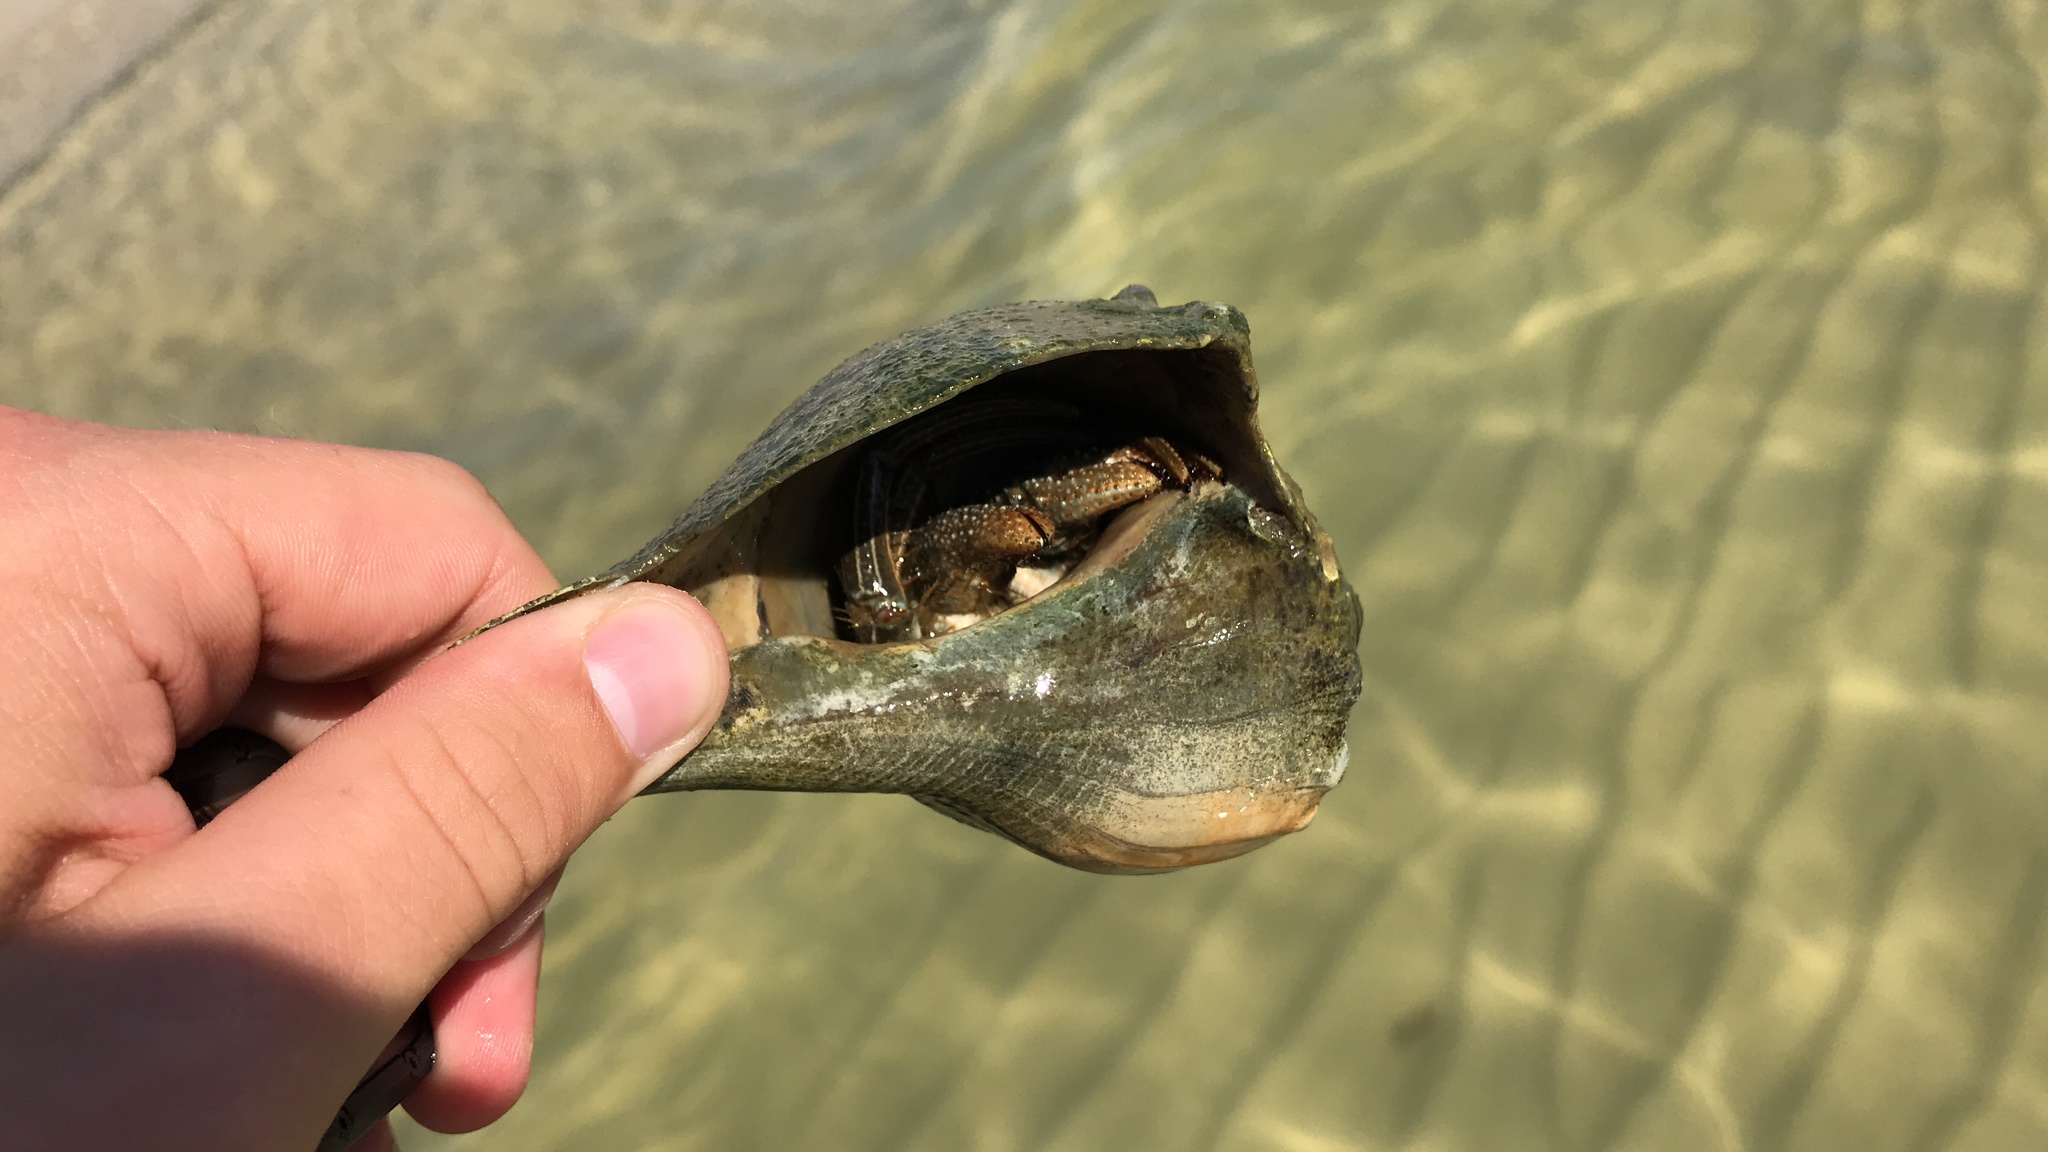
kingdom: Animalia
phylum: Arthropoda
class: Malacostraca
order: Decapoda
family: Diogenidae
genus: Clibanarius
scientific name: Clibanarius vittatus
